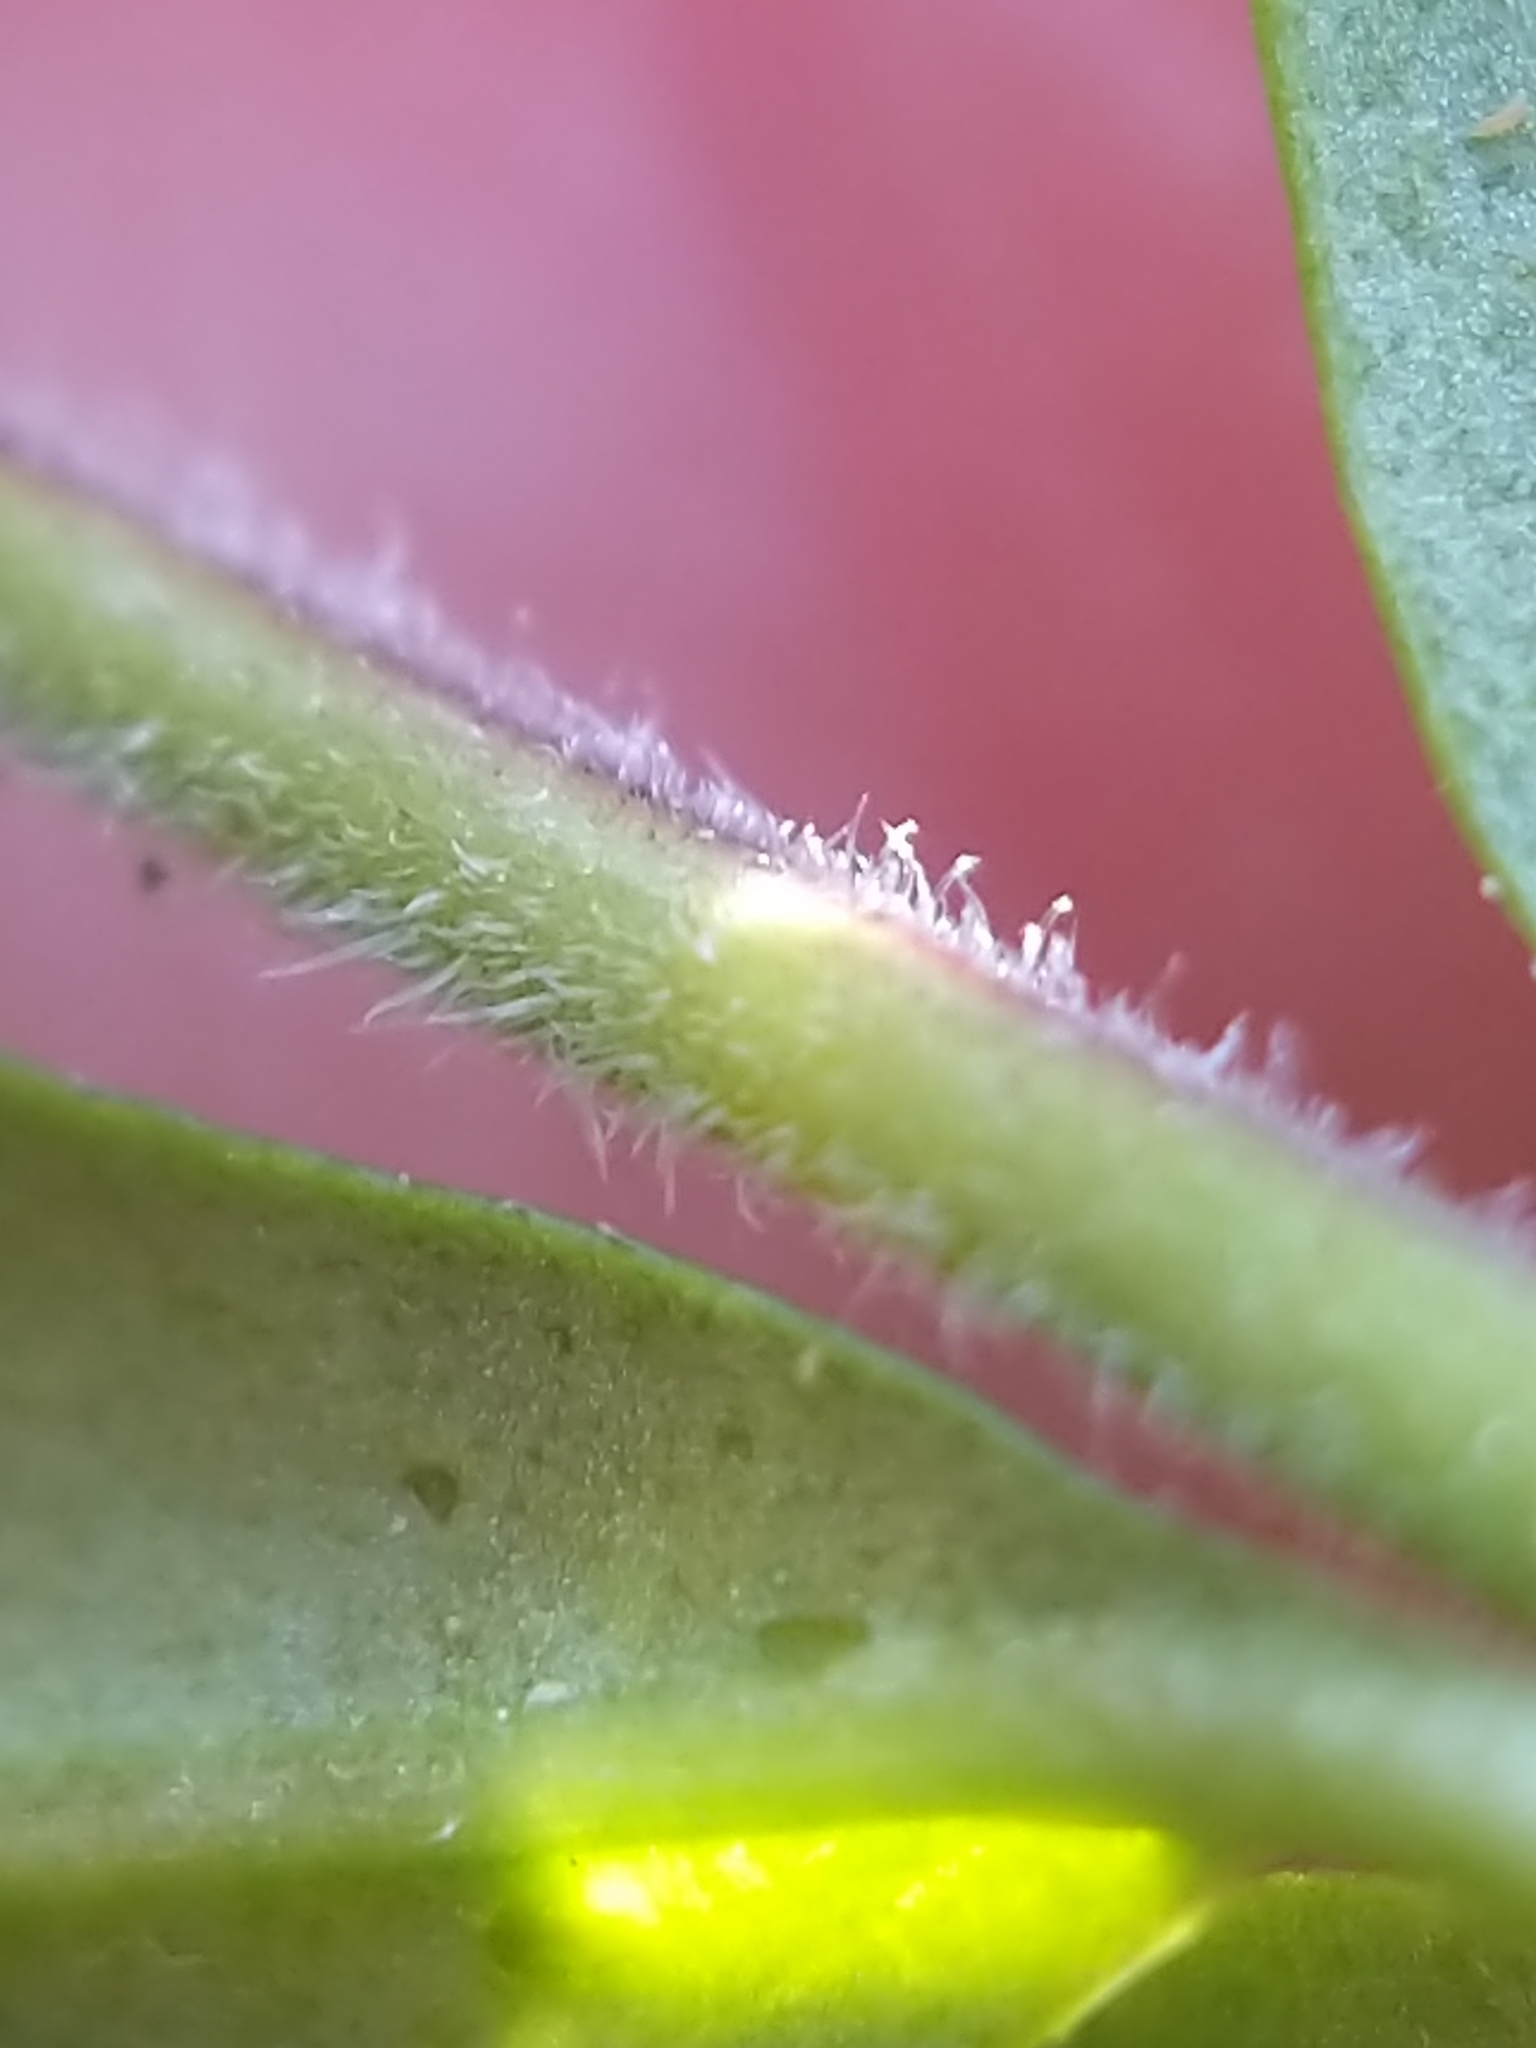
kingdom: Plantae
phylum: Tracheophyta
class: Magnoliopsida
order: Lamiales
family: Oleaceae
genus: Ligustrum
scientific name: Ligustrum obtusifolium
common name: Border privet
